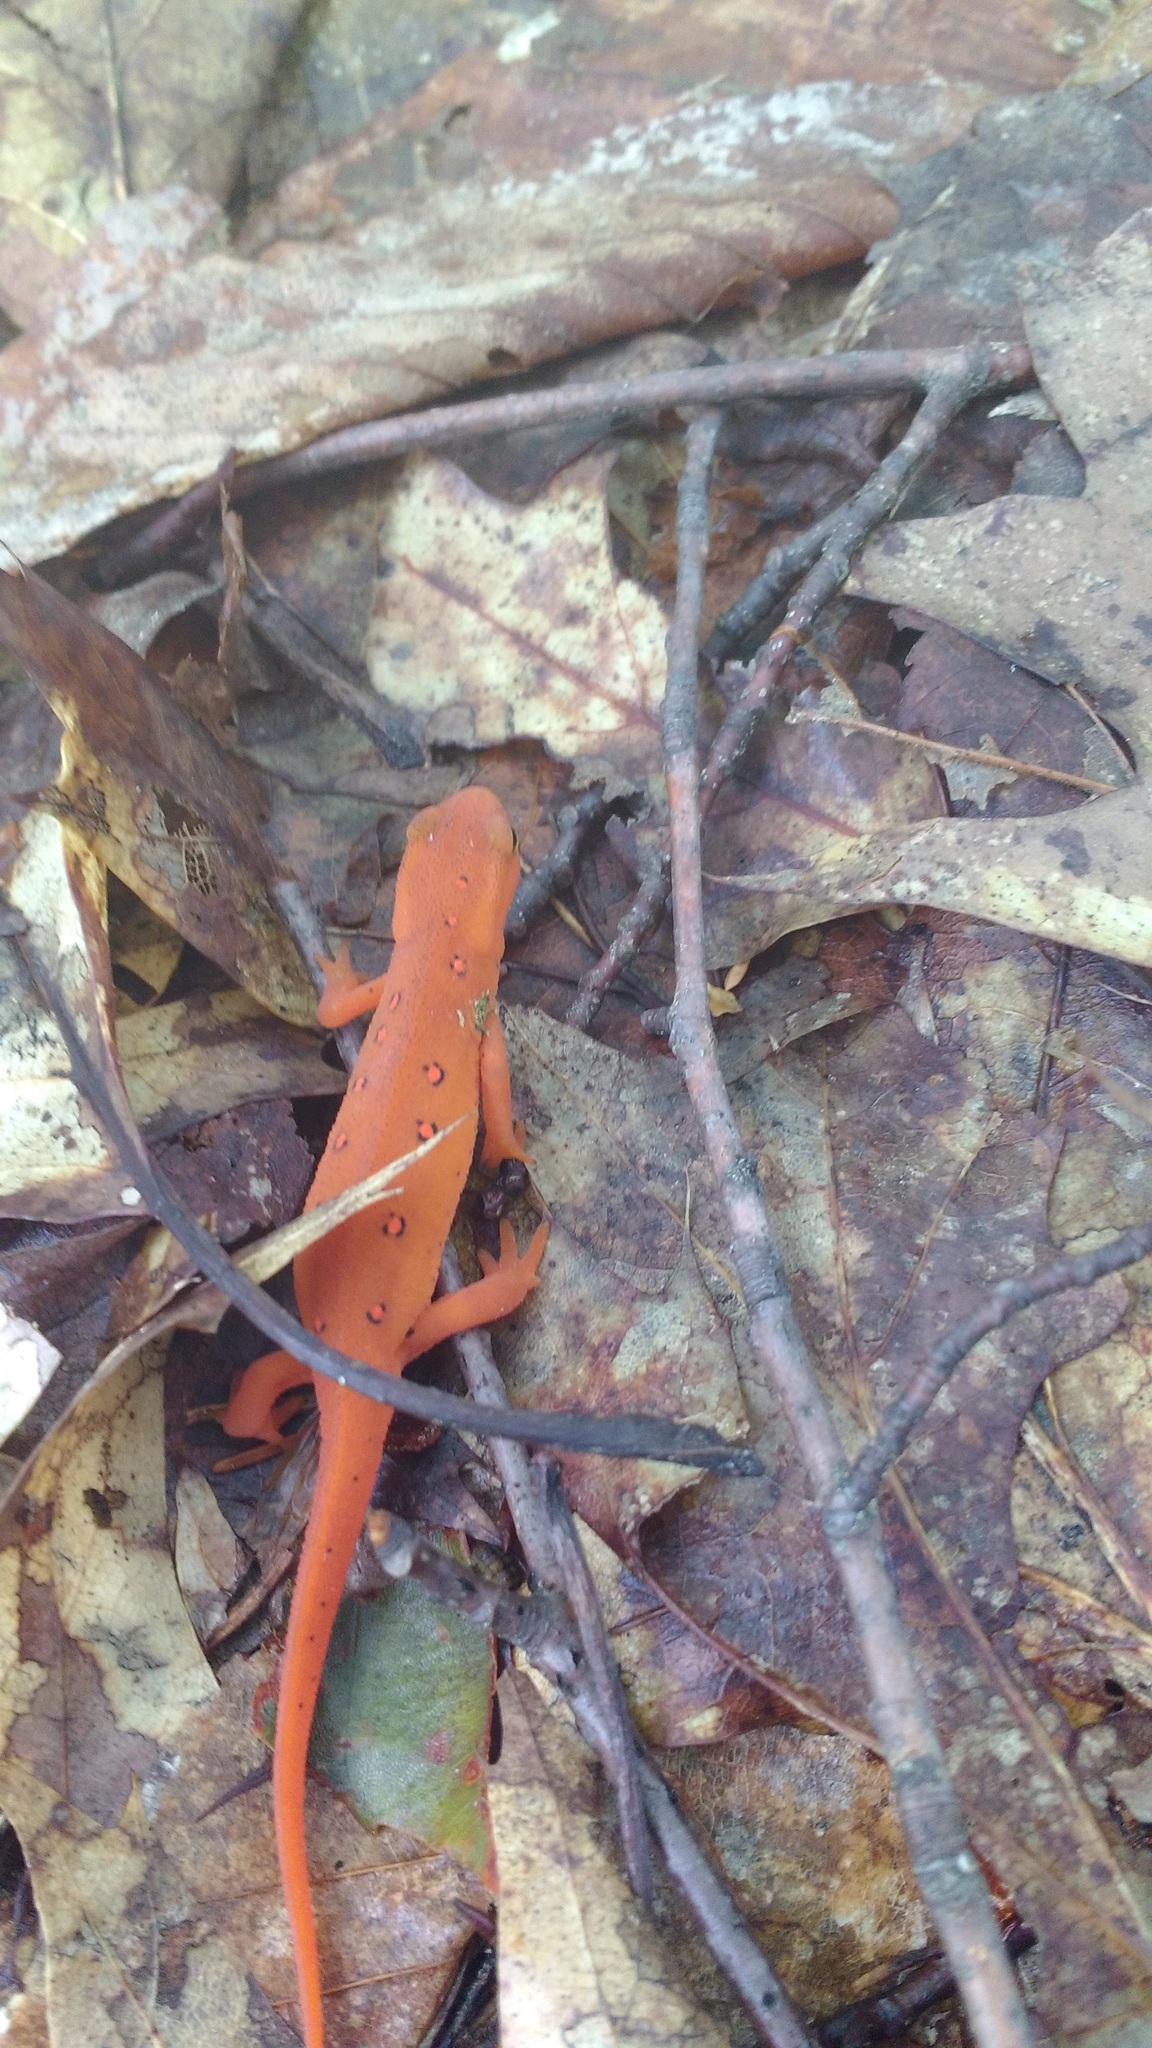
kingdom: Animalia
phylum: Chordata
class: Amphibia
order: Caudata
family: Salamandridae
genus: Notophthalmus
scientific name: Notophthalmus viridescens
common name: Eastern newt
